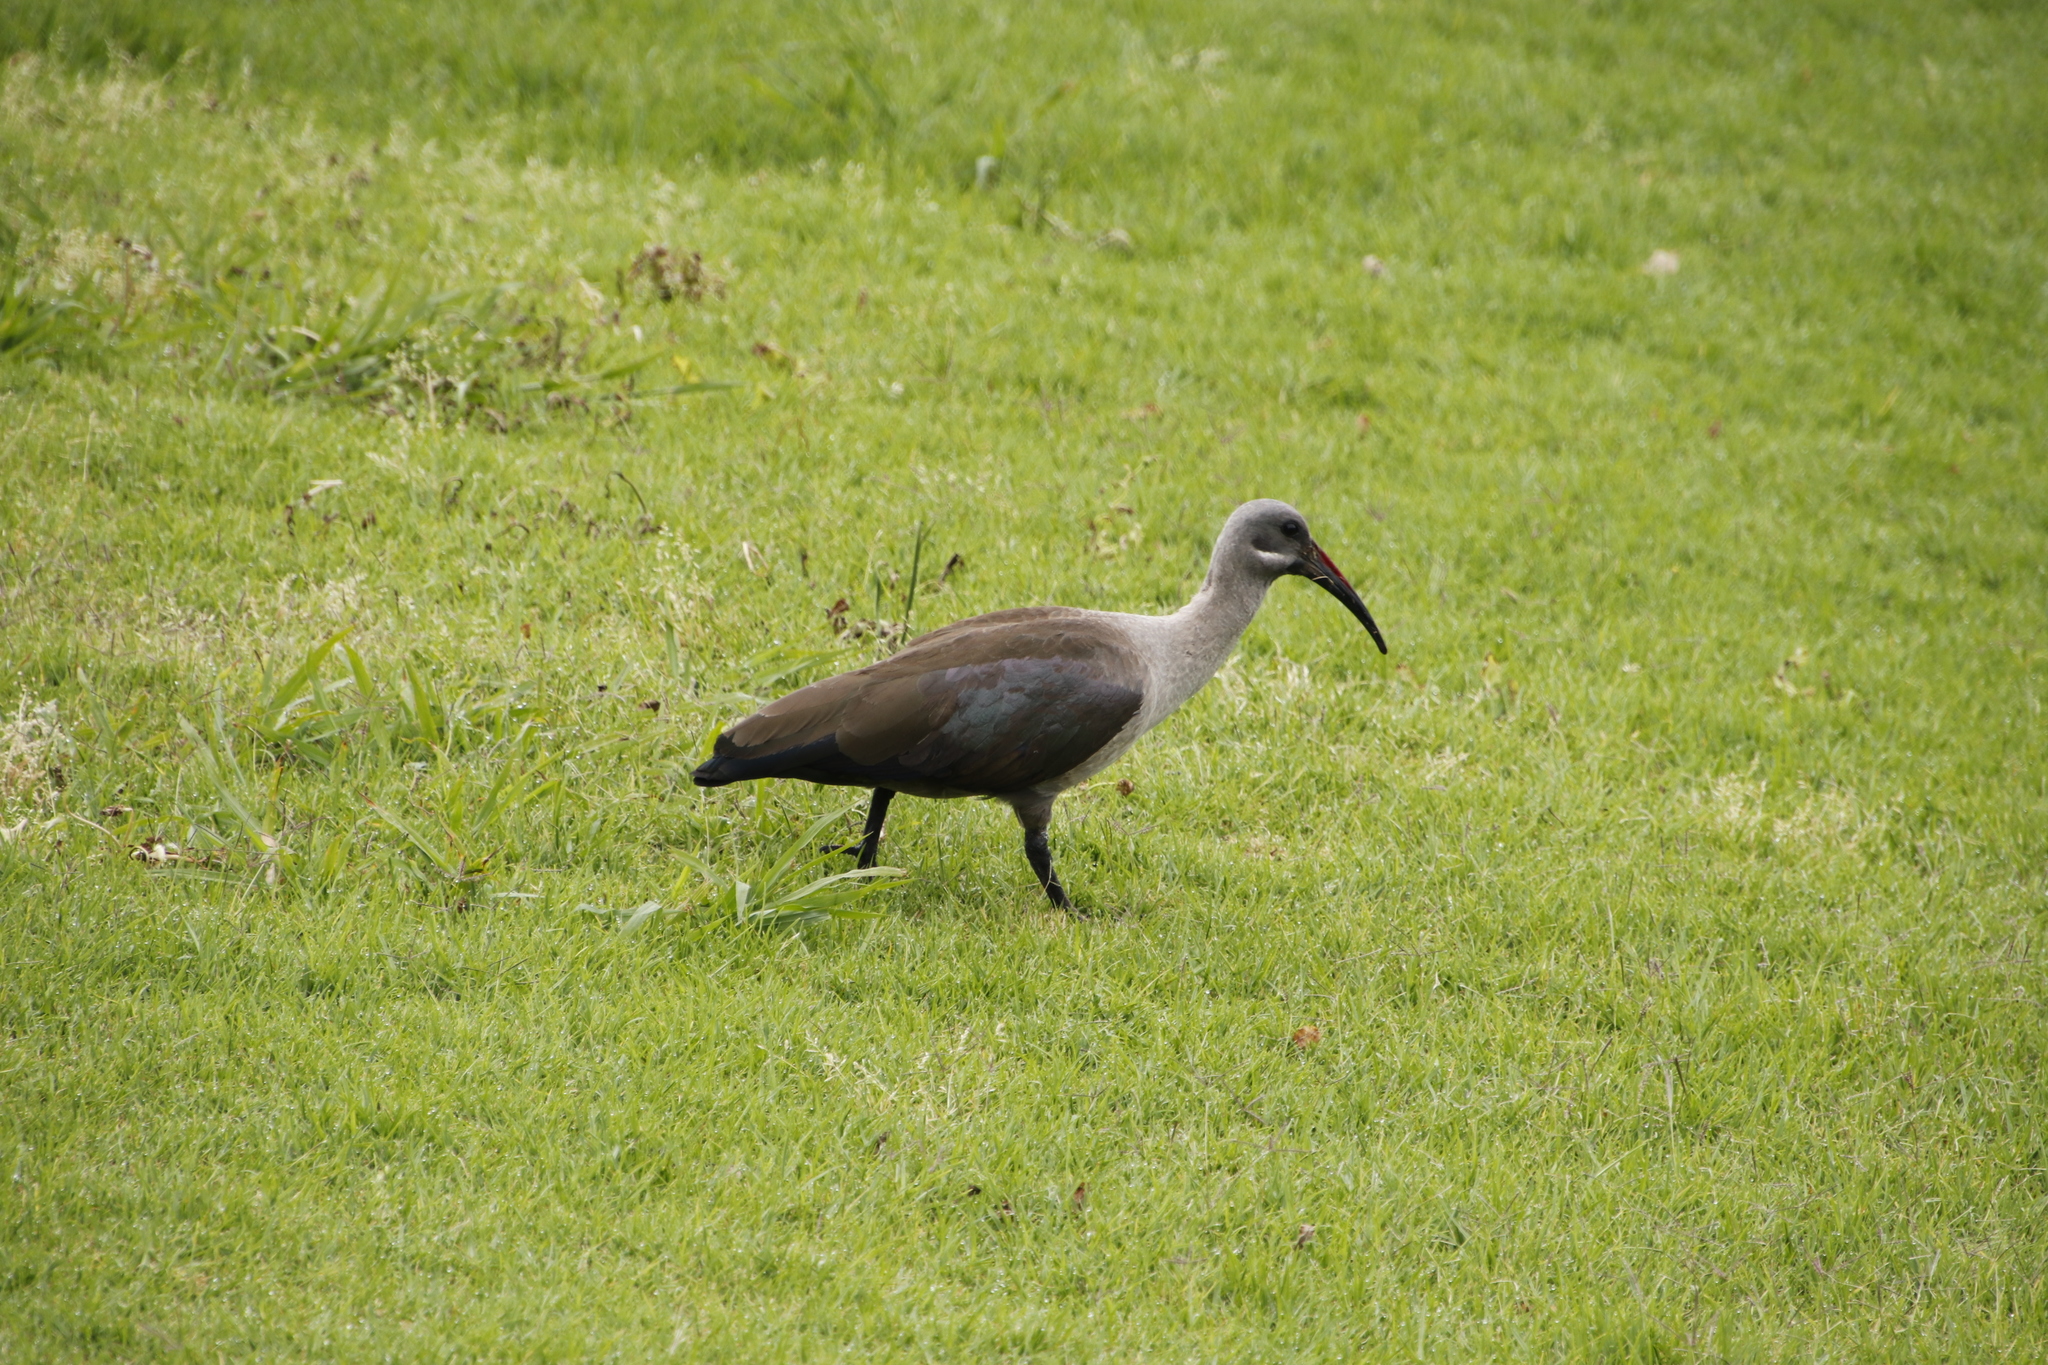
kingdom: Animalia
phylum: Chordata
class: Aves
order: Pelecaniformes
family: Threskiornithidae
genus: Bostrychia
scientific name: Bostrychia hagedash
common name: Hadada ibis
